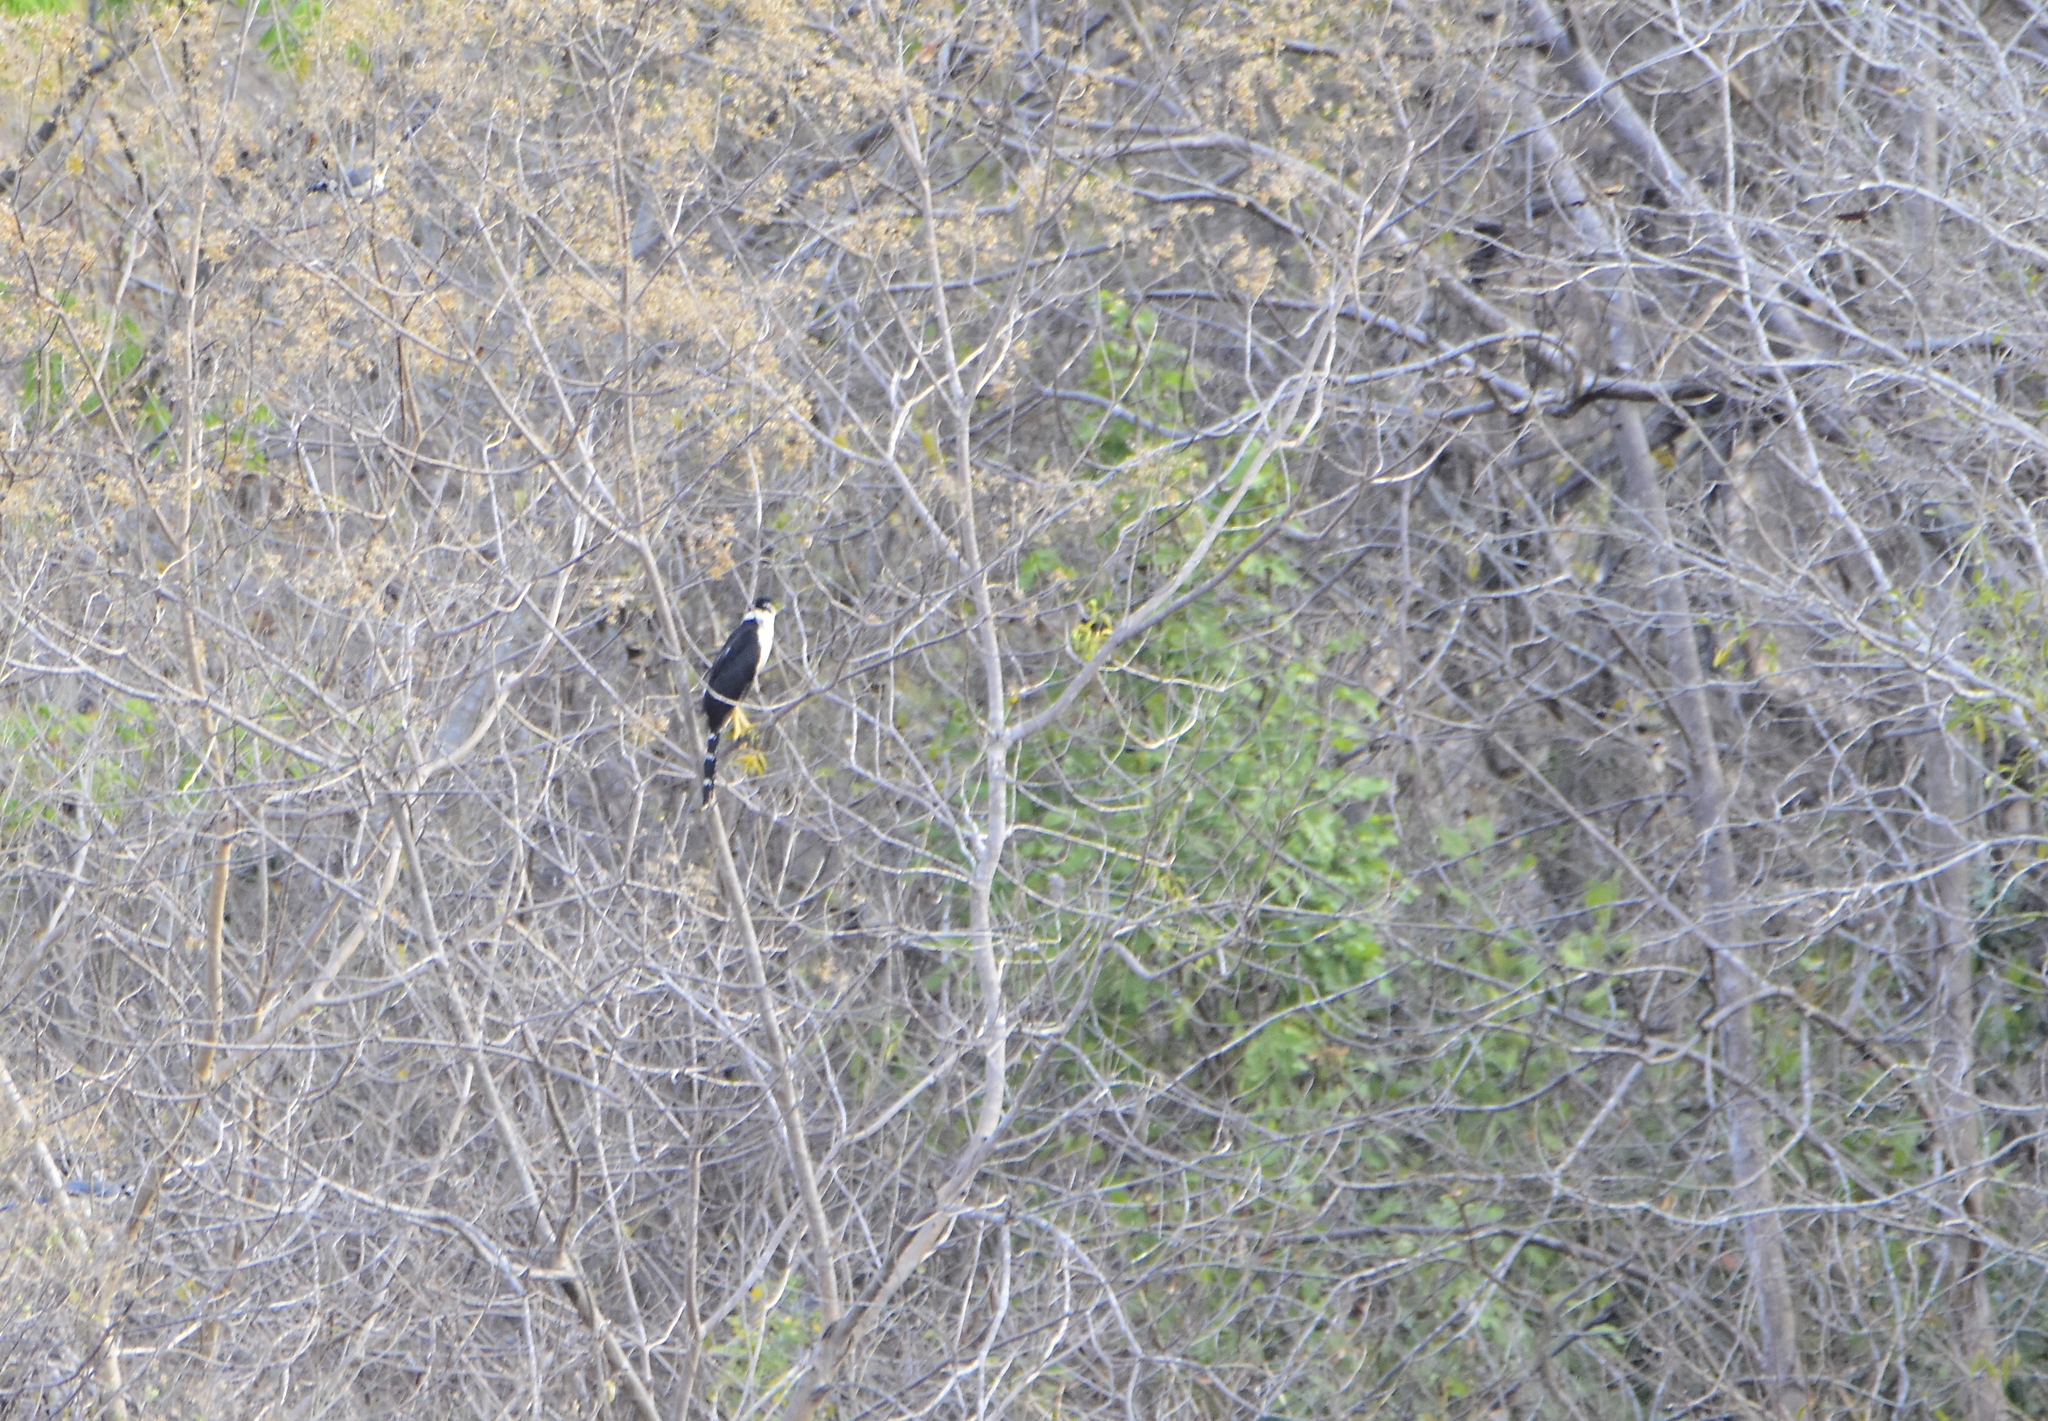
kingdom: Animalia
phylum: Chordata
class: Aves
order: Falconiformes
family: Falconidae
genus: Micrastur
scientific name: Micrastur semitorquatus
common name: Collared forest-falcon
